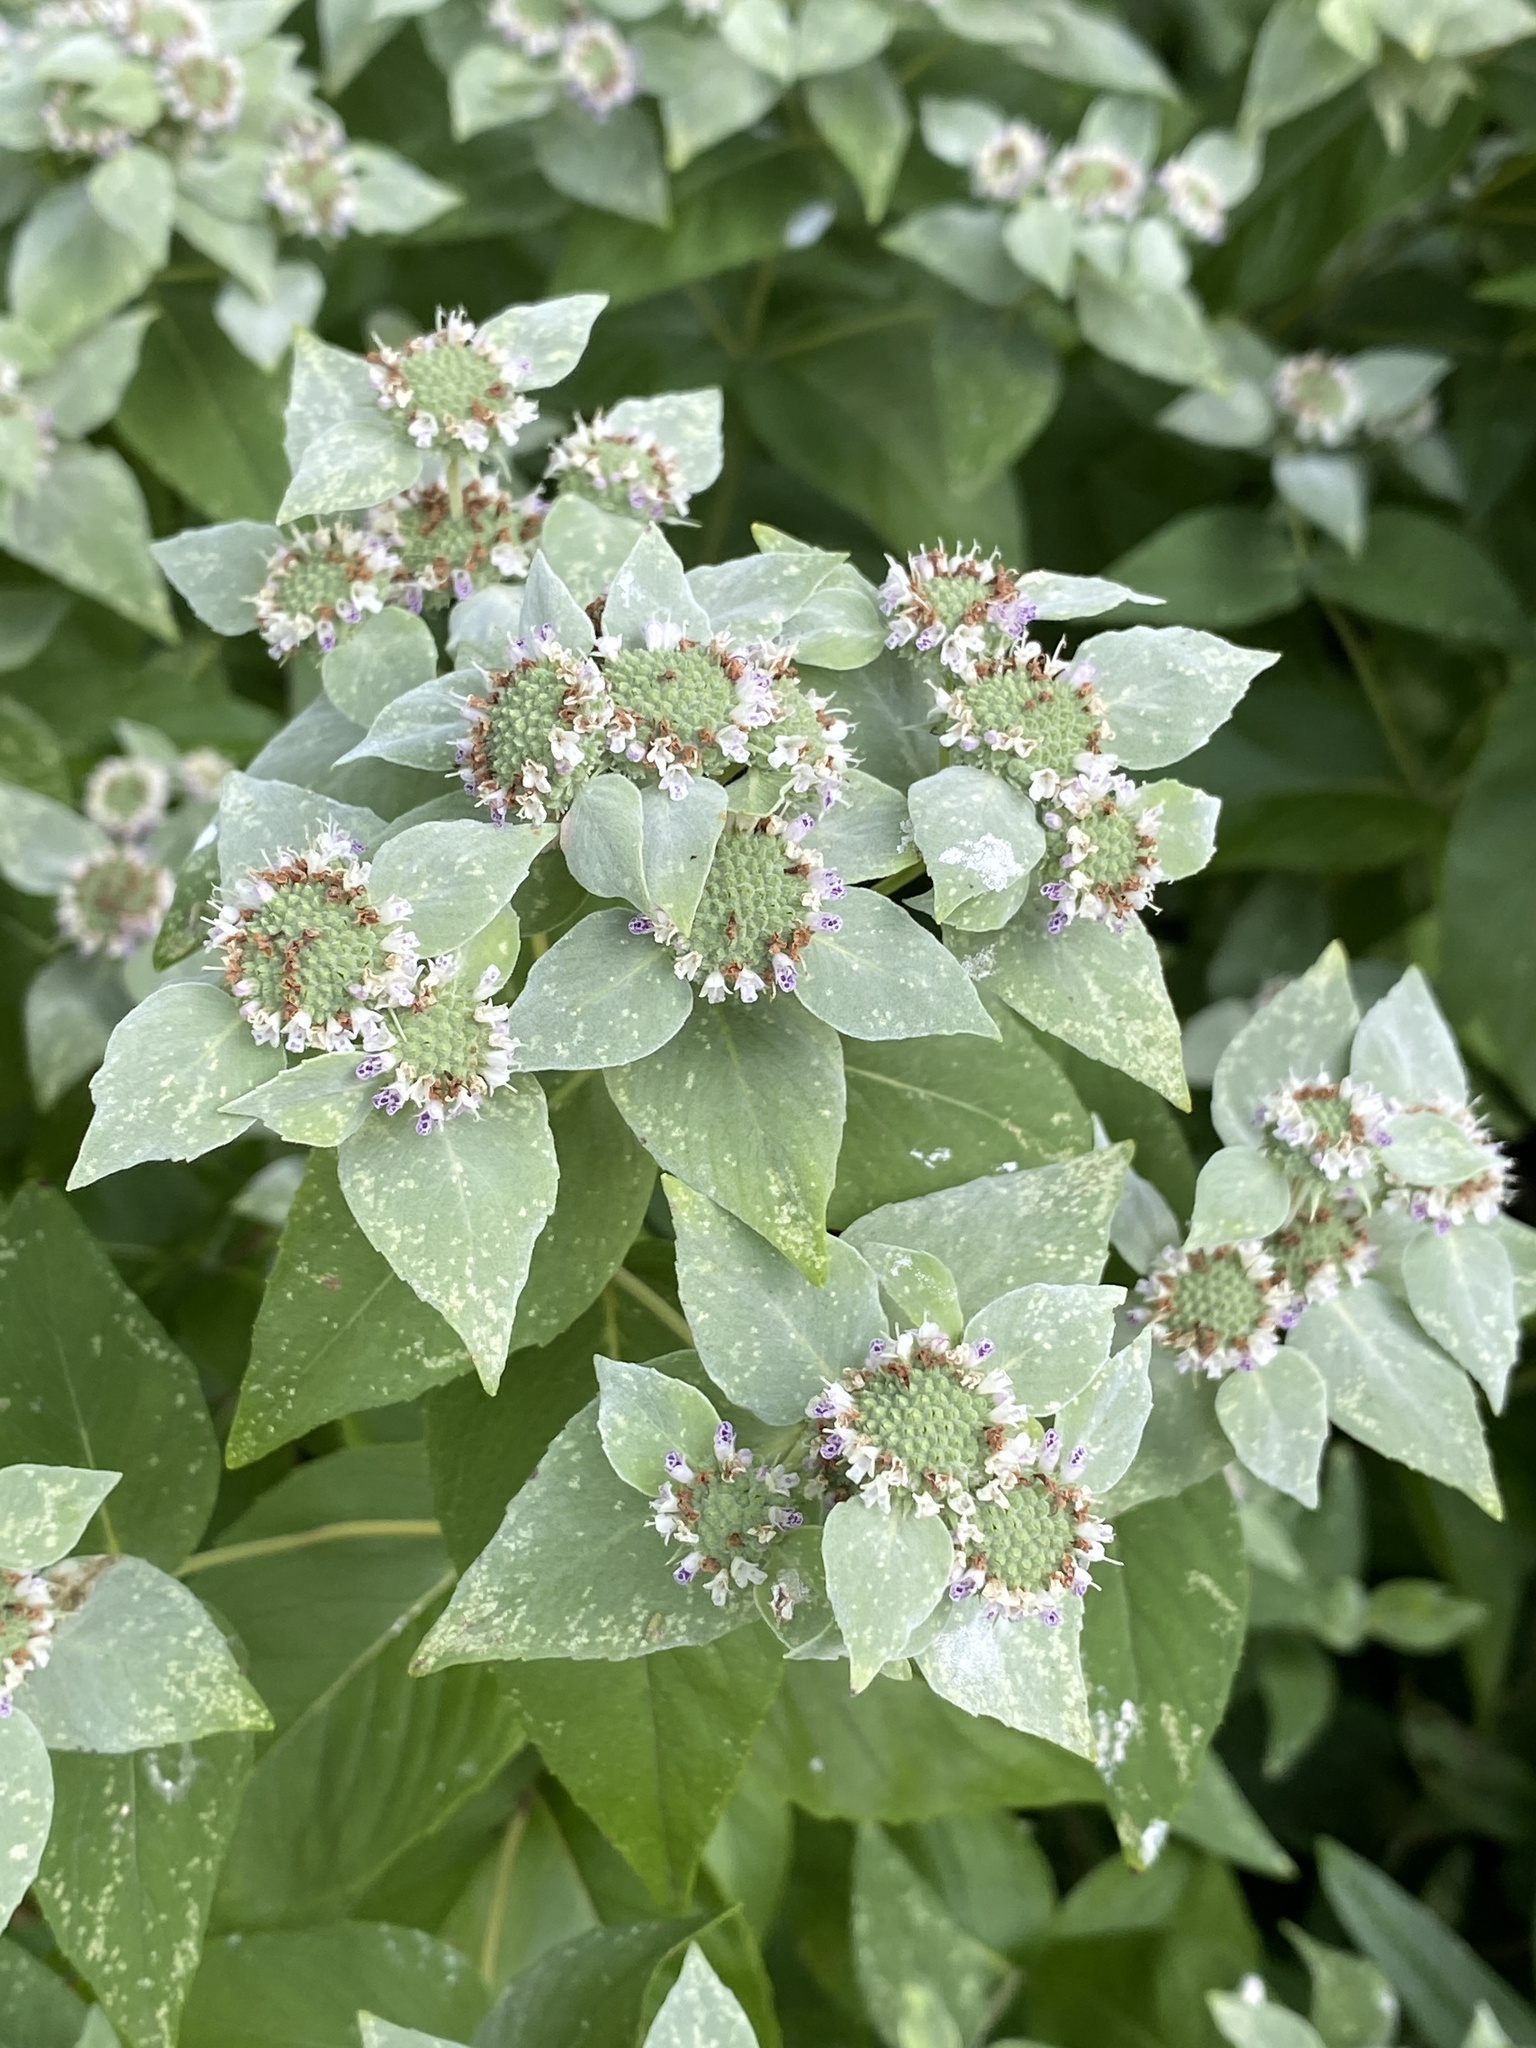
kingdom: Plantae
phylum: Tracheophyta
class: Magnoliopsida
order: Lamiales
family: Lamiaceae
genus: Pycnanthemum
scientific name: Pycnanthemum muticum
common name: Blunt mountain-mint
